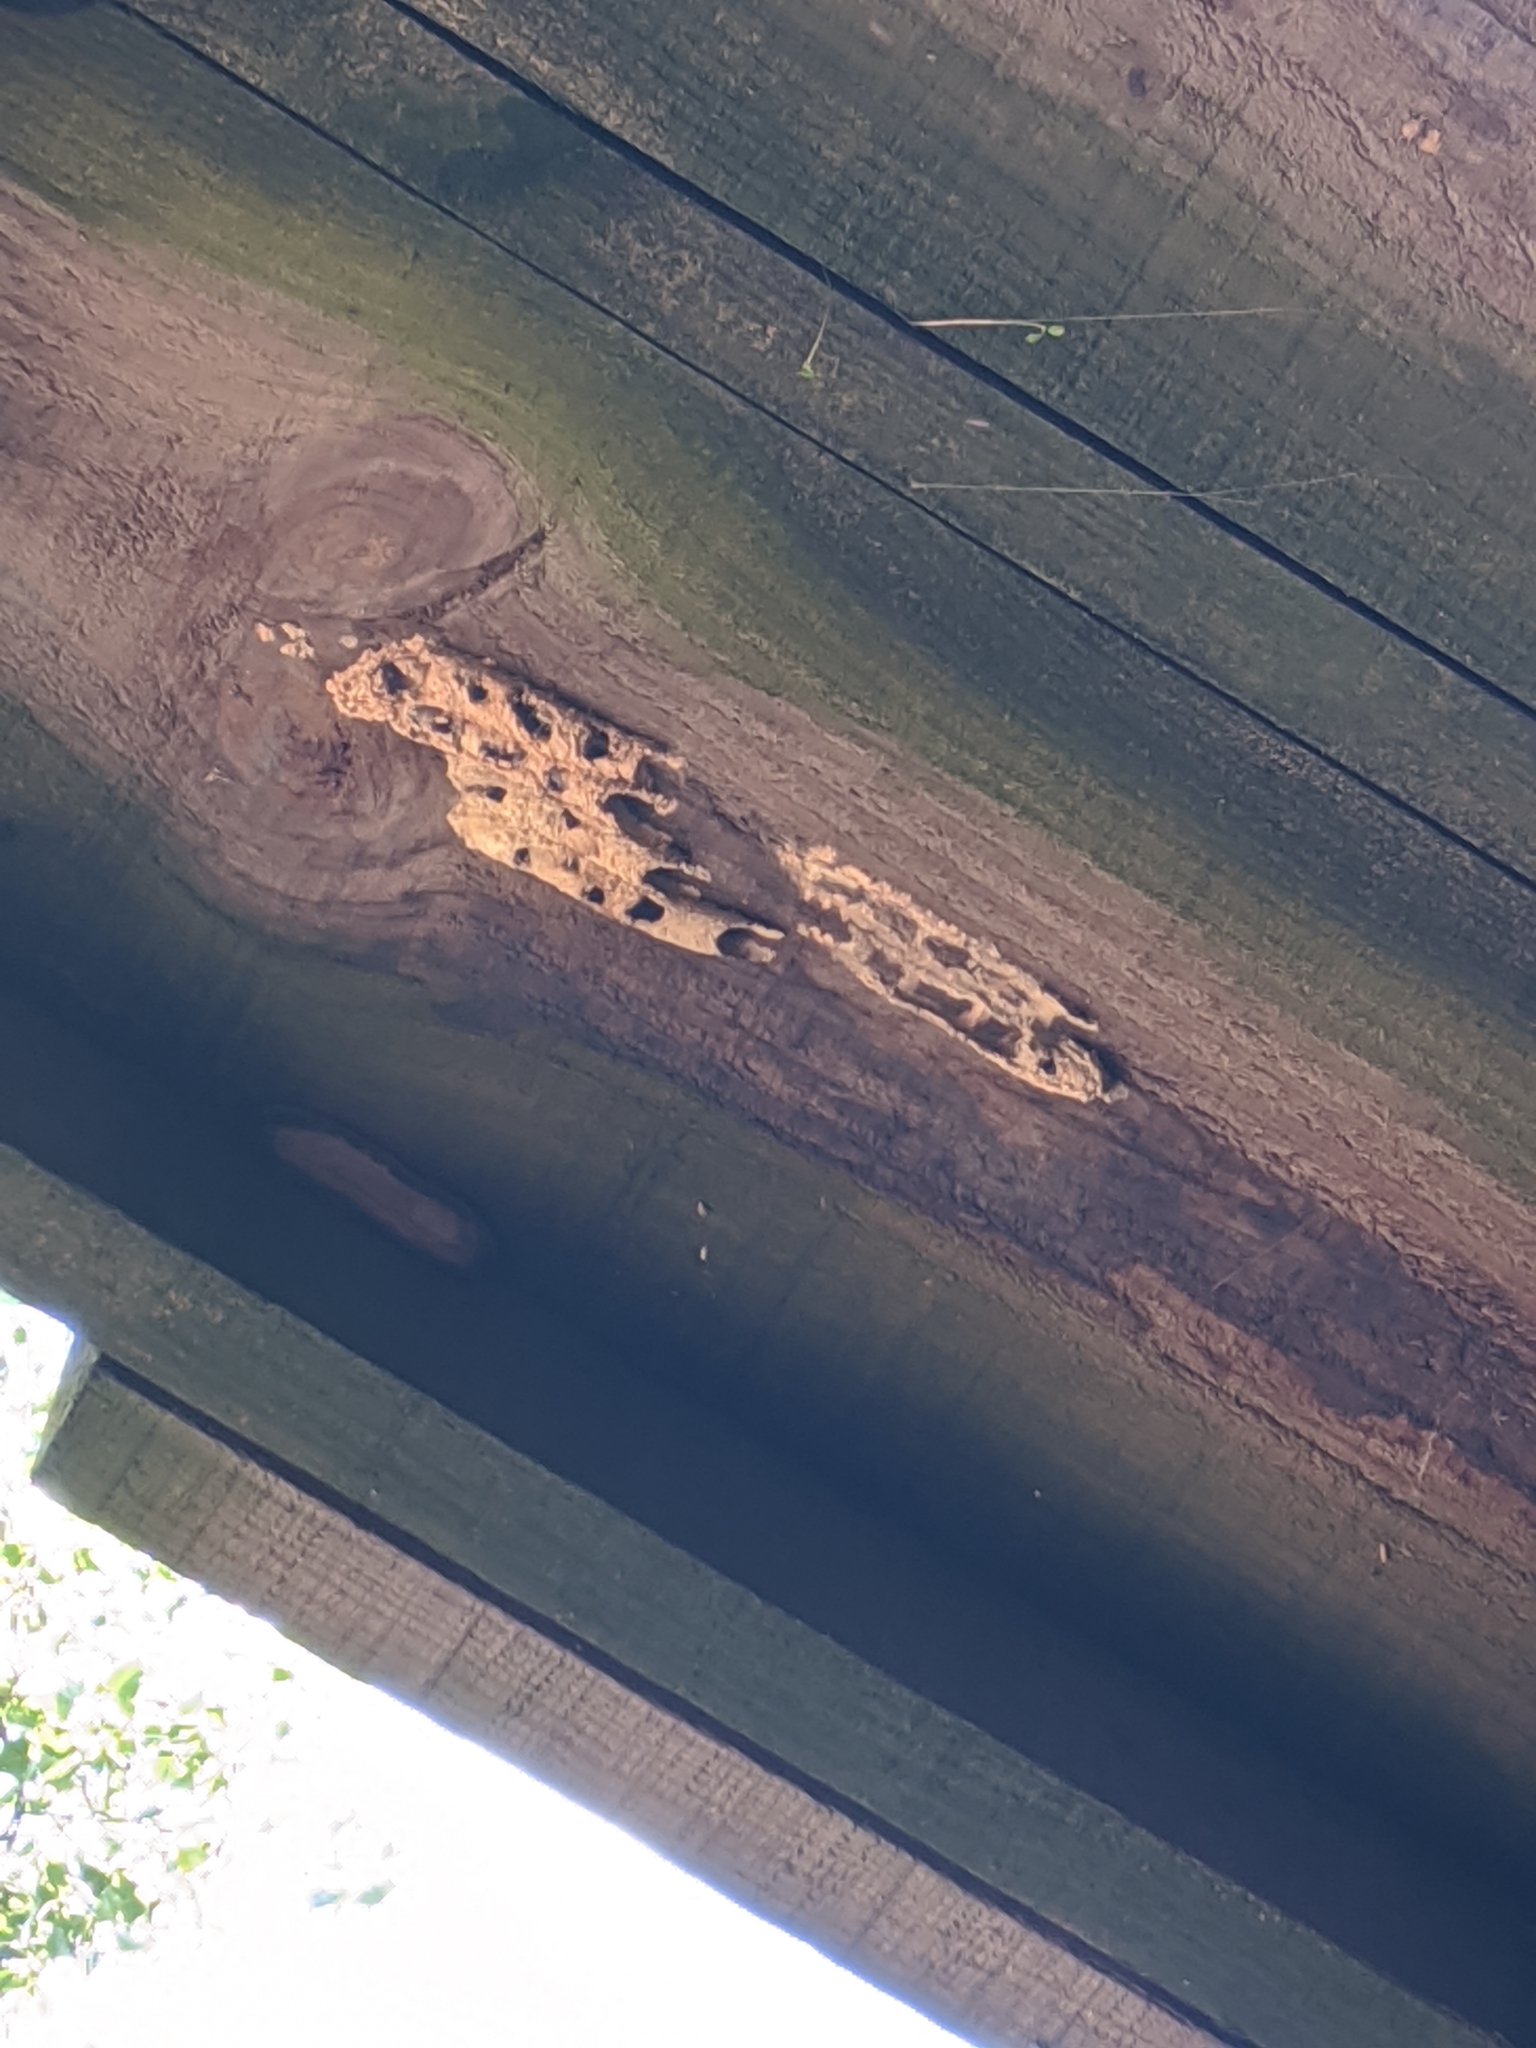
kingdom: Animalia
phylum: Arthropoda
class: Insecta
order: Hymenoptera
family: Crabronidae
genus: Trypoxylon
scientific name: Trypoxylon politum
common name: Organ-pipe mud-dauber wasp
